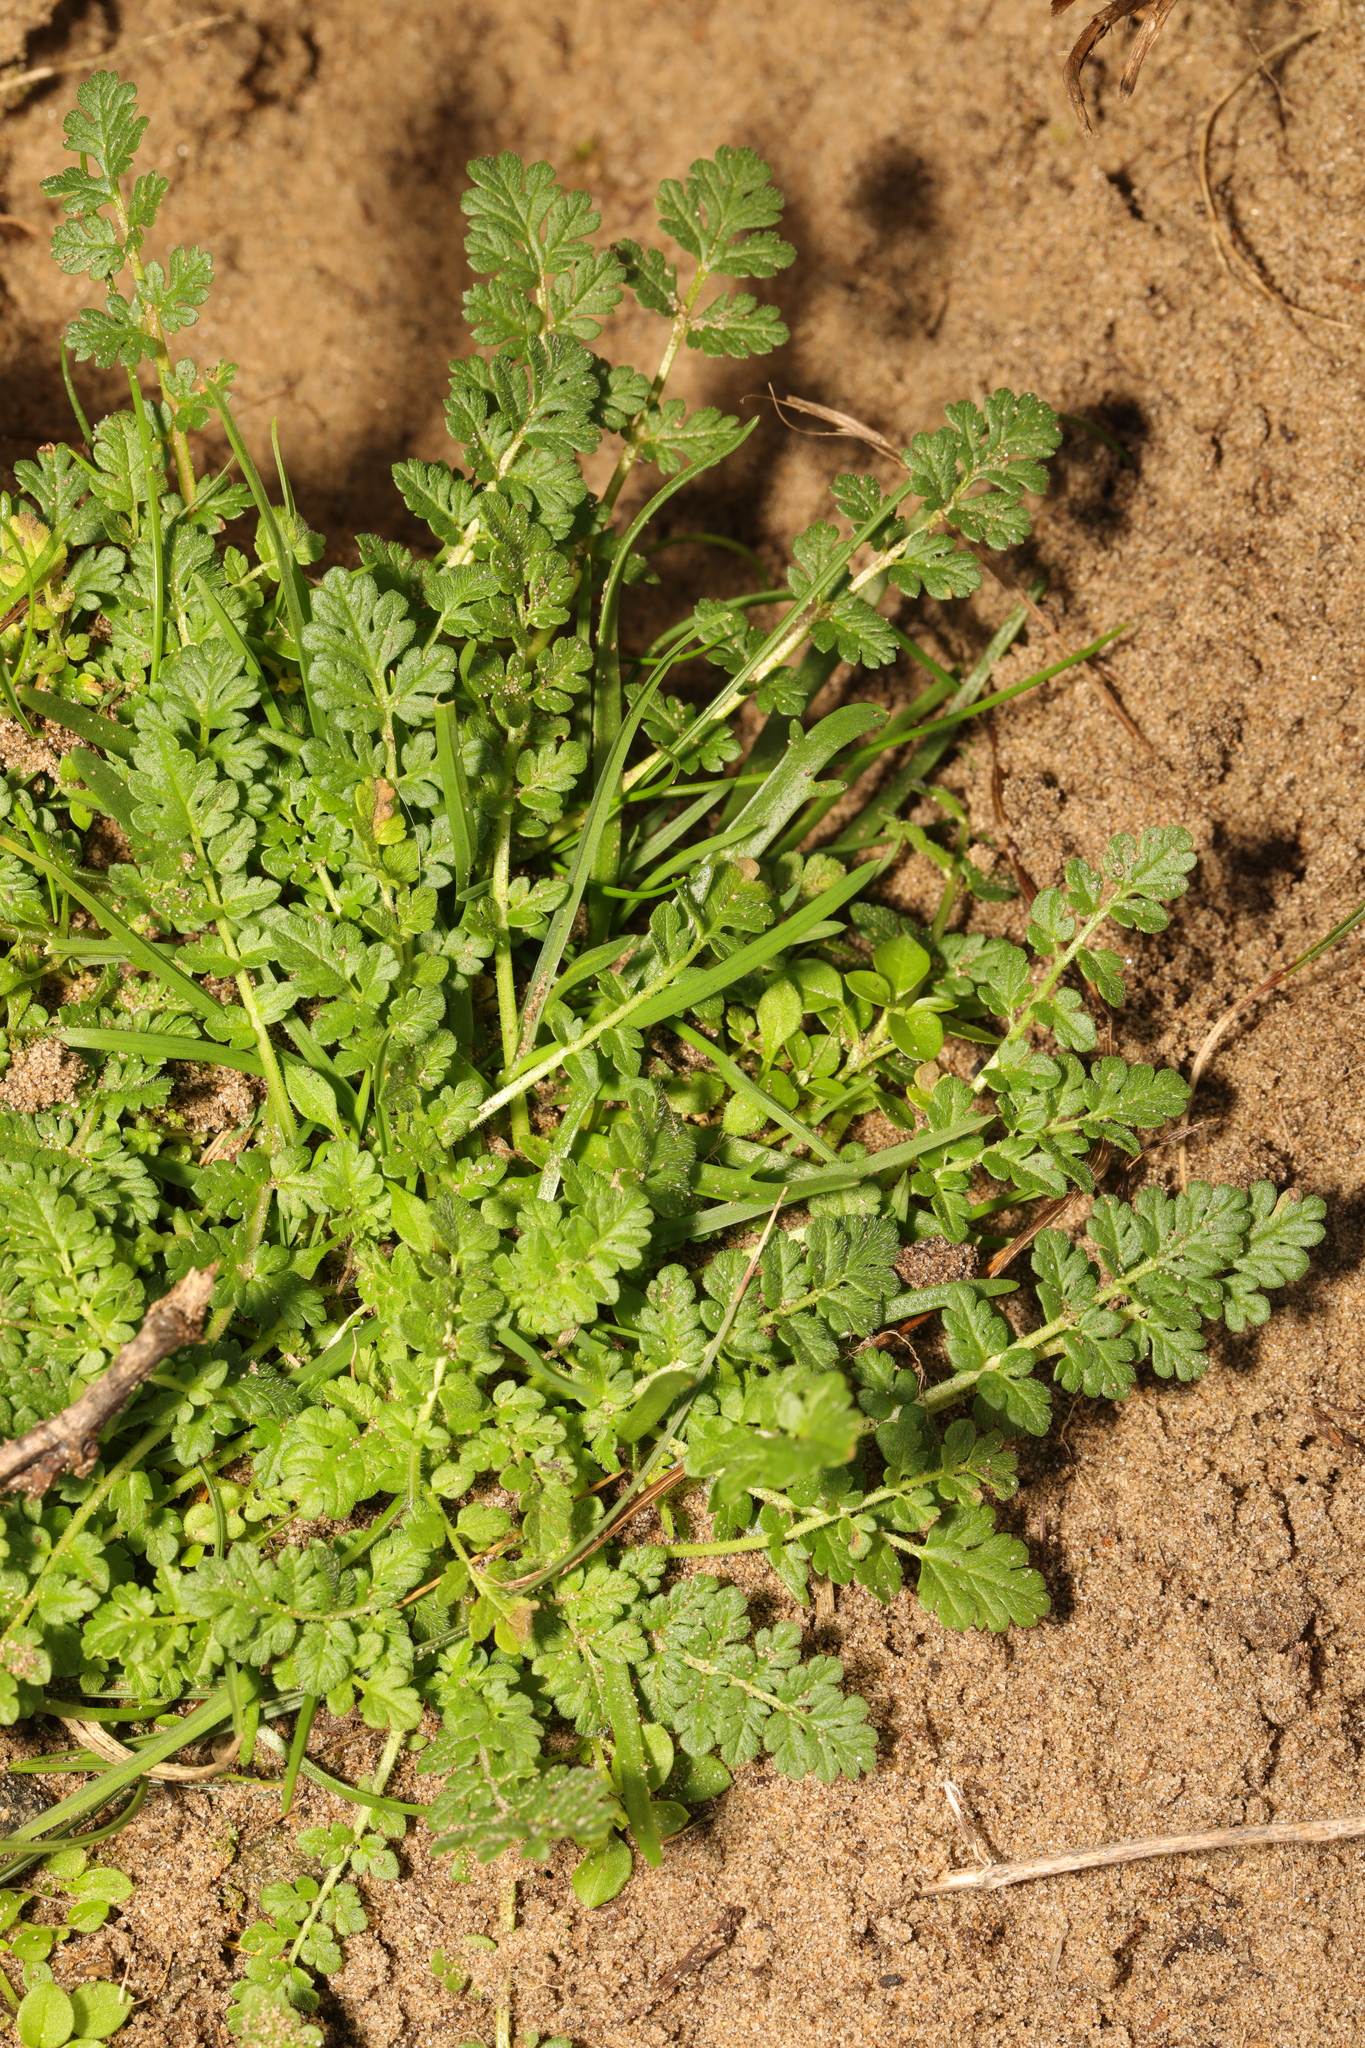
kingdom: Plantae
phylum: Tracheophyta
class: Magnoliopsida
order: Geraniales
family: Geraniaceae
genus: Erodium
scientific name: Erodium cicutarium
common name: Common stork's-bill
